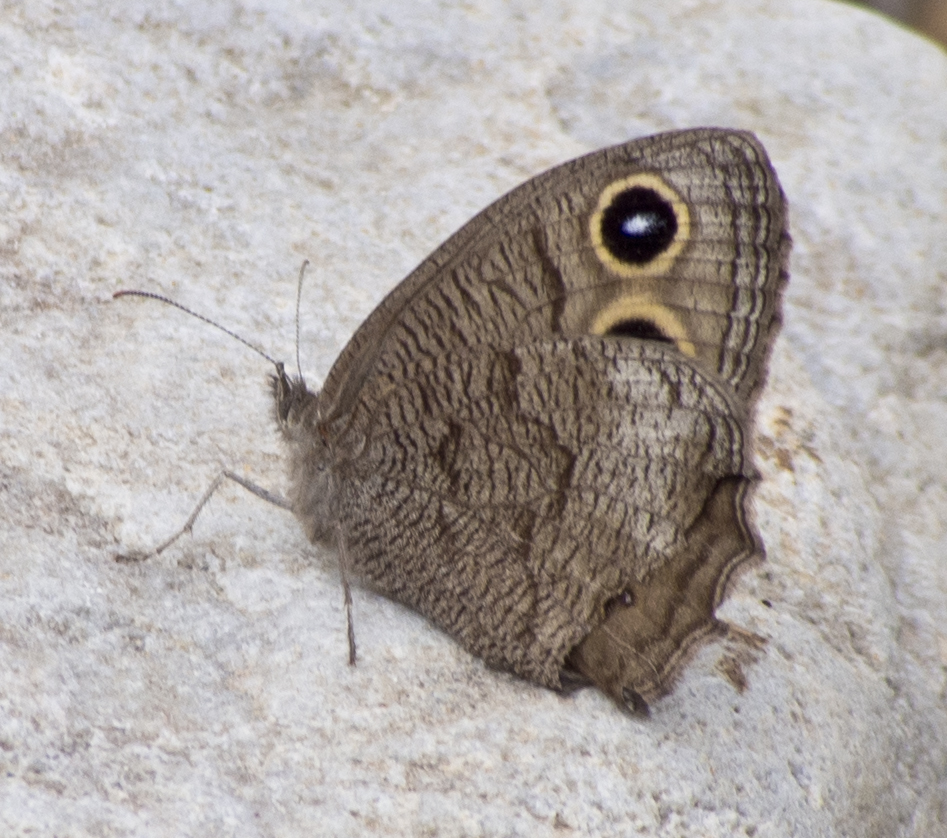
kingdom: Animalia
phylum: Arthropoda
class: Insecta
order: Lepidoptera
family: Nymphalidae
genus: Cercyonis
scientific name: Cercyonis pegala
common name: Common wood-nymph
